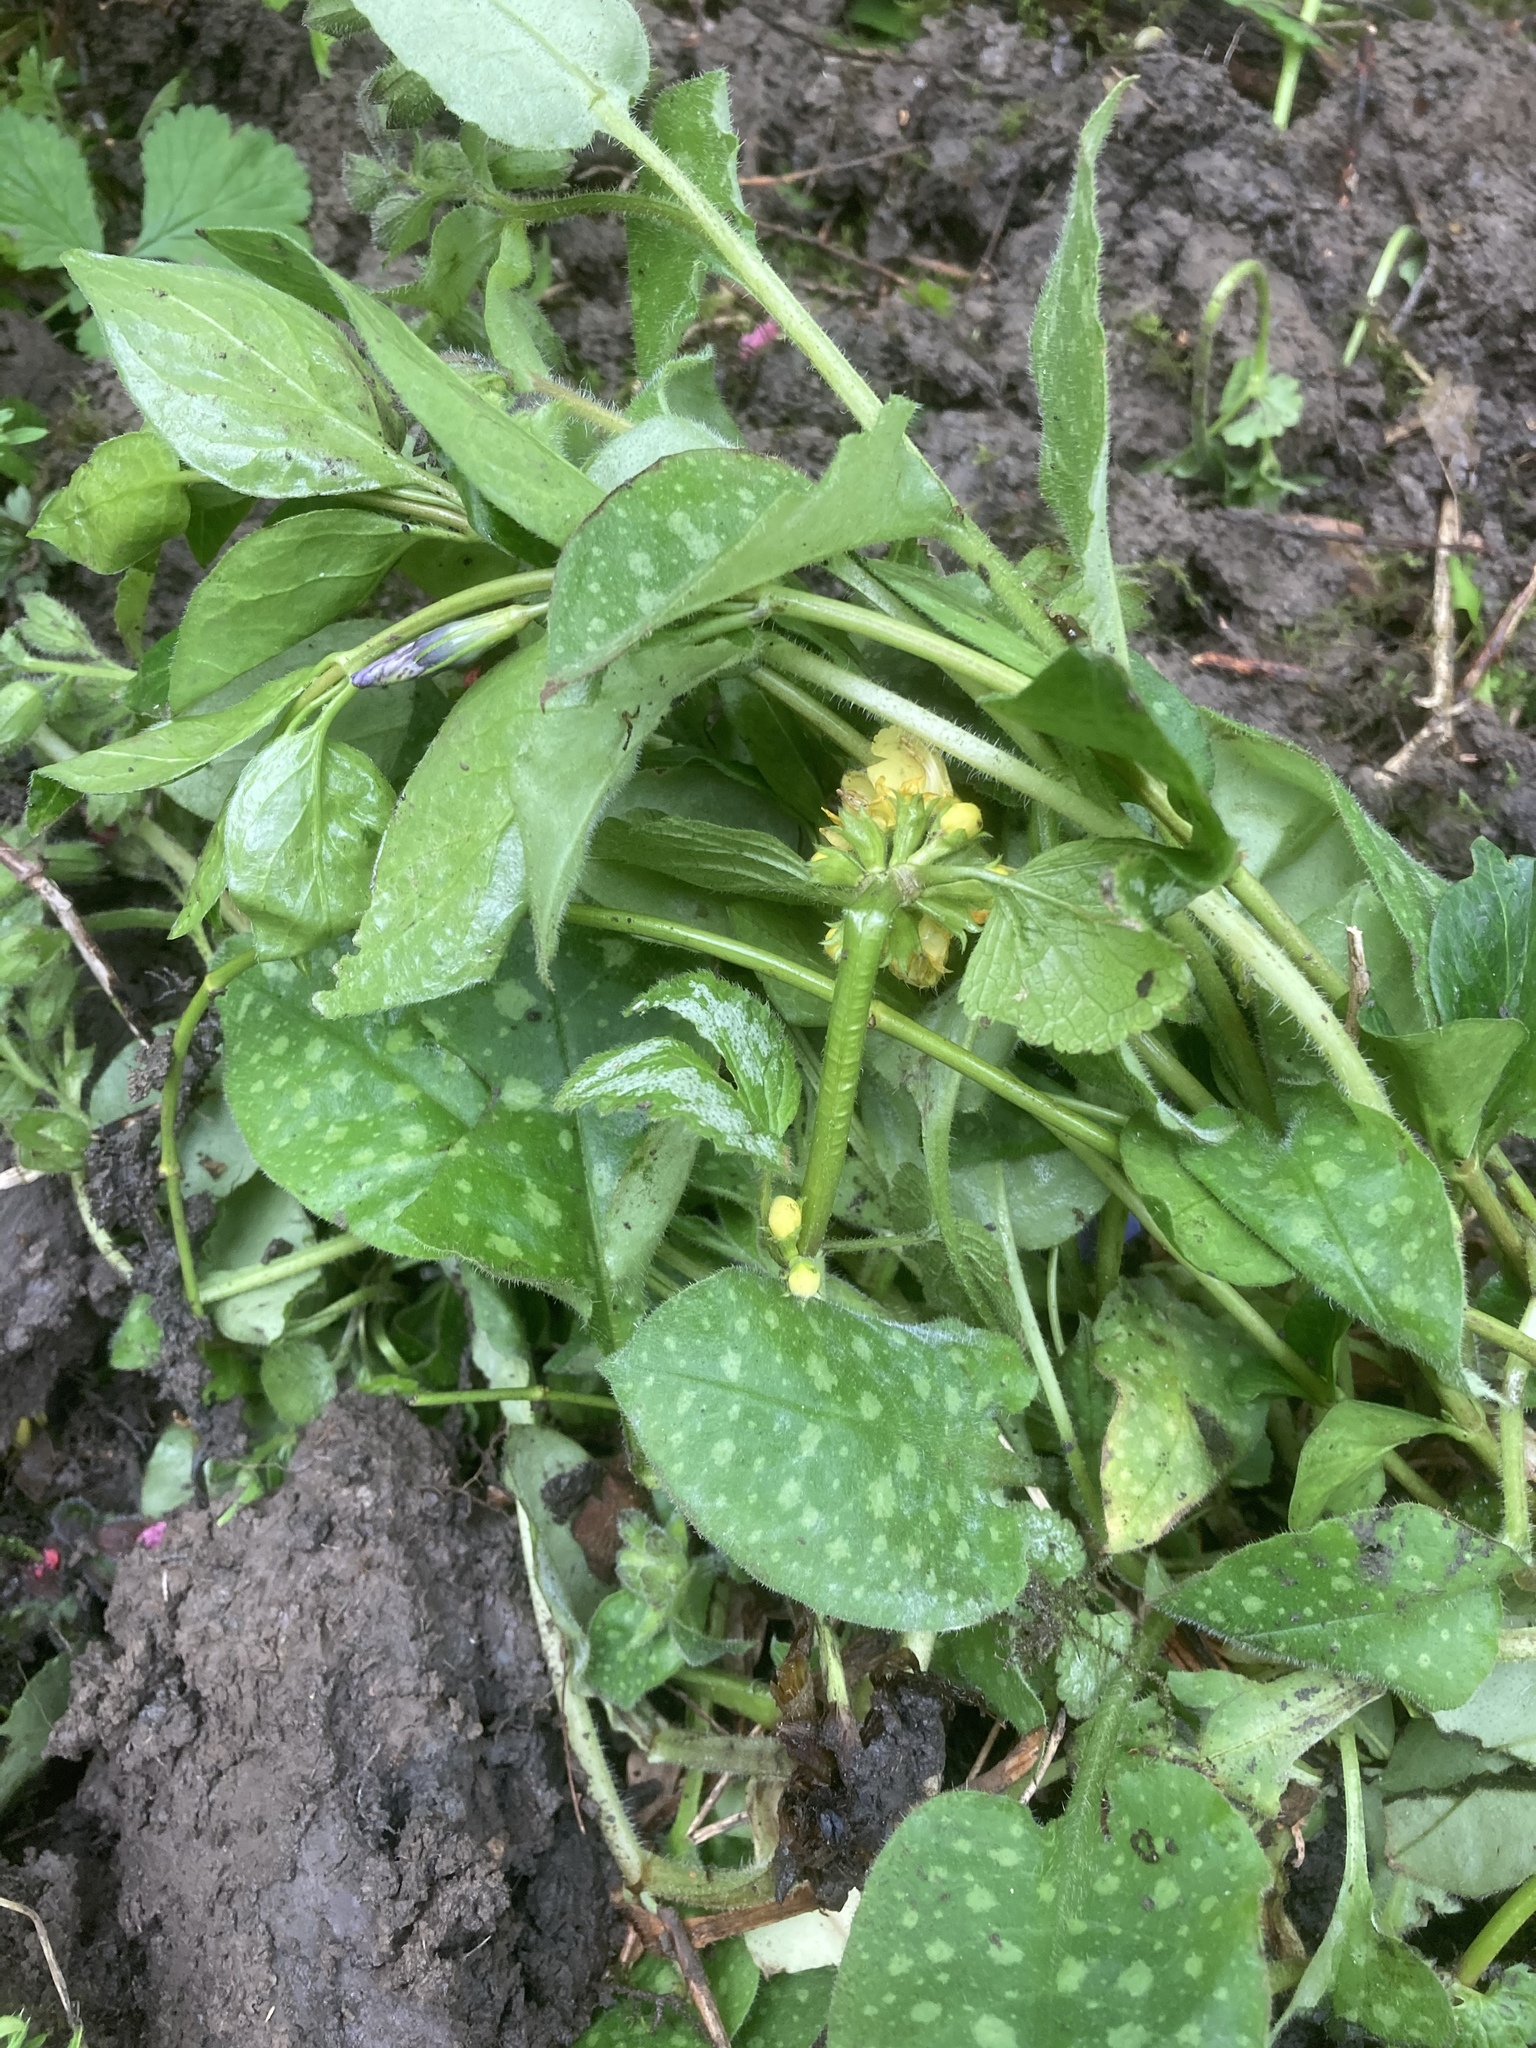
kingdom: Plantae
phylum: Tracheophyta
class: Magnoliopsida
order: Boraginales
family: Boraginaceae
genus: Pulmonaria
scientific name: Pulmonaria officinalis
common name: Lungwort
